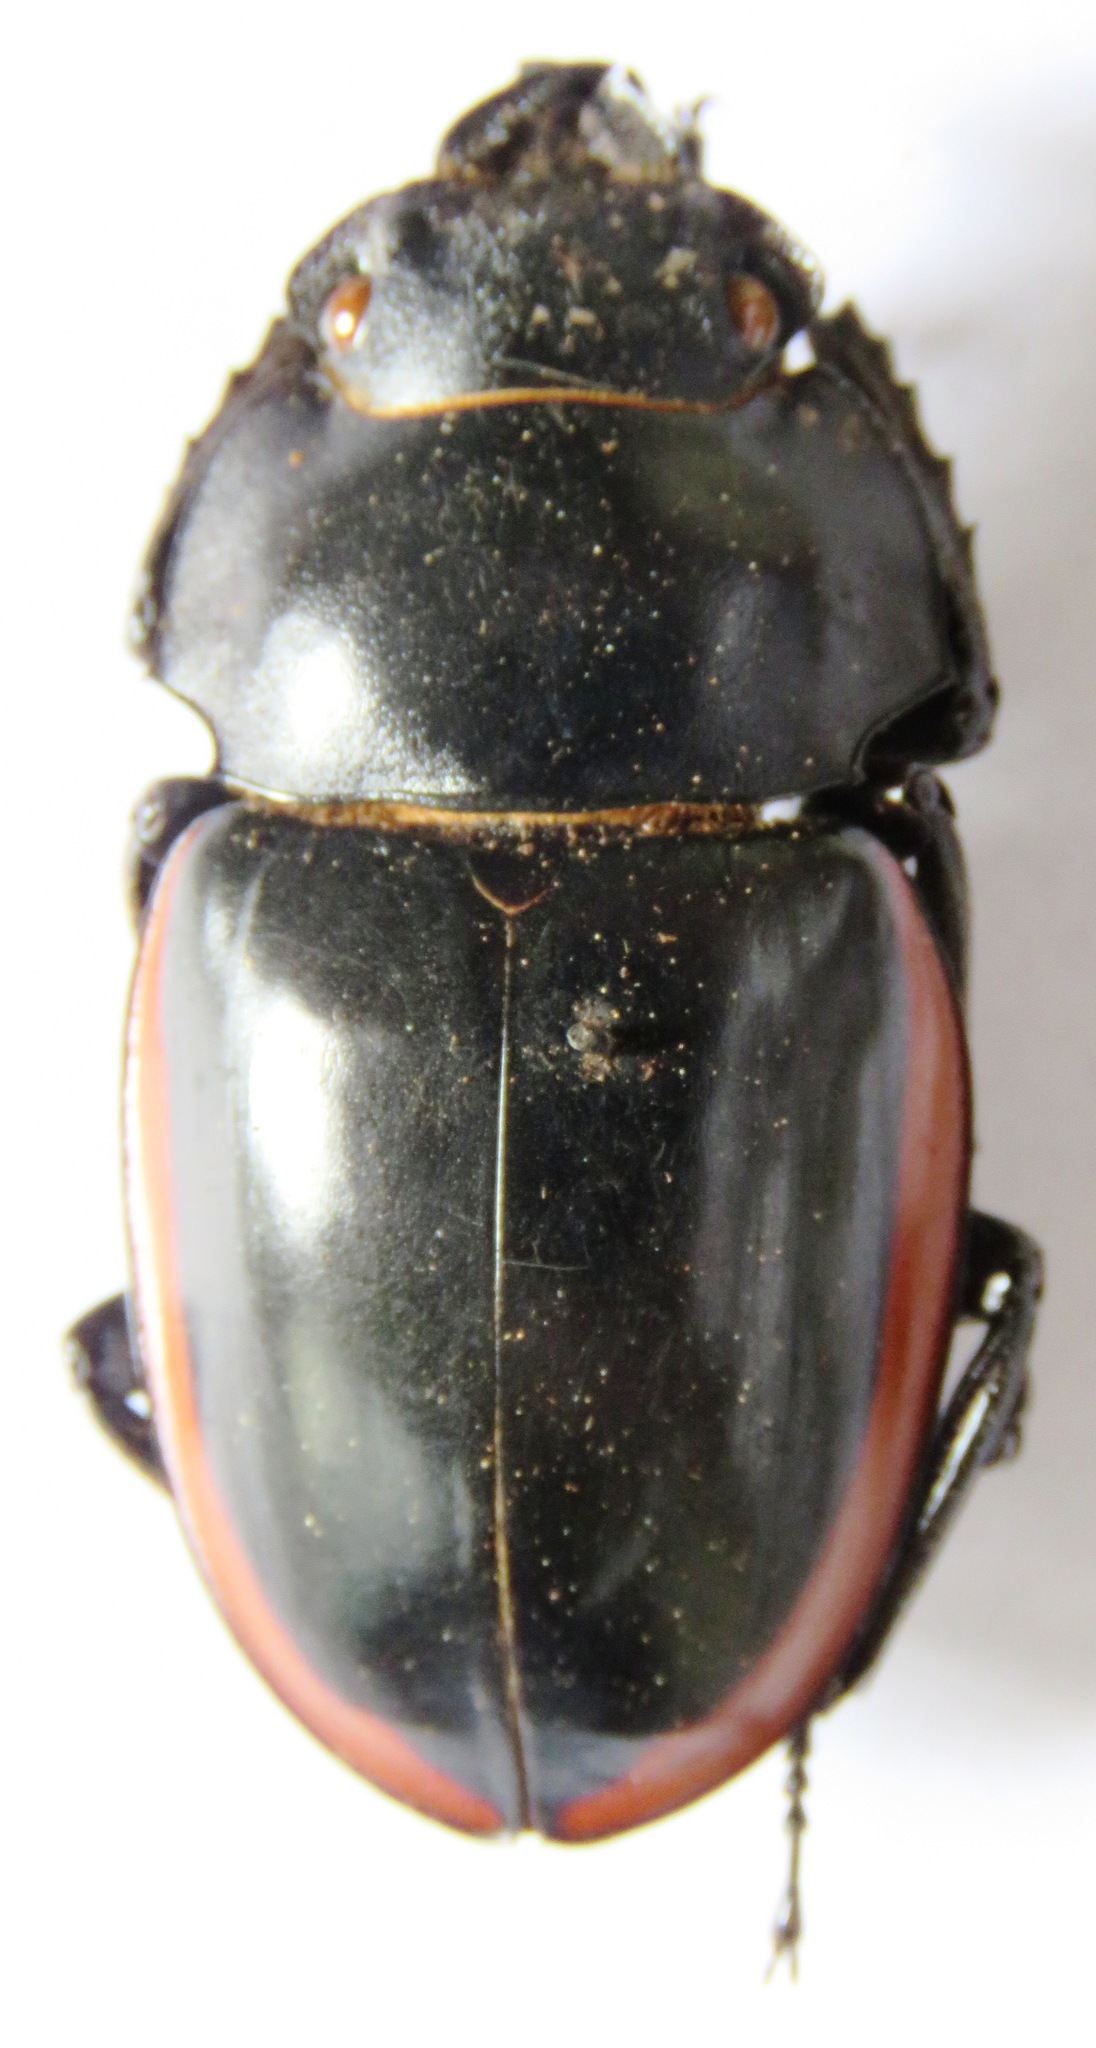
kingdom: Animalia
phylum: Arthropoda
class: Insecta
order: Coleoptera
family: Lucanidae
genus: Odontolabis
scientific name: Odontolabis cuvera
